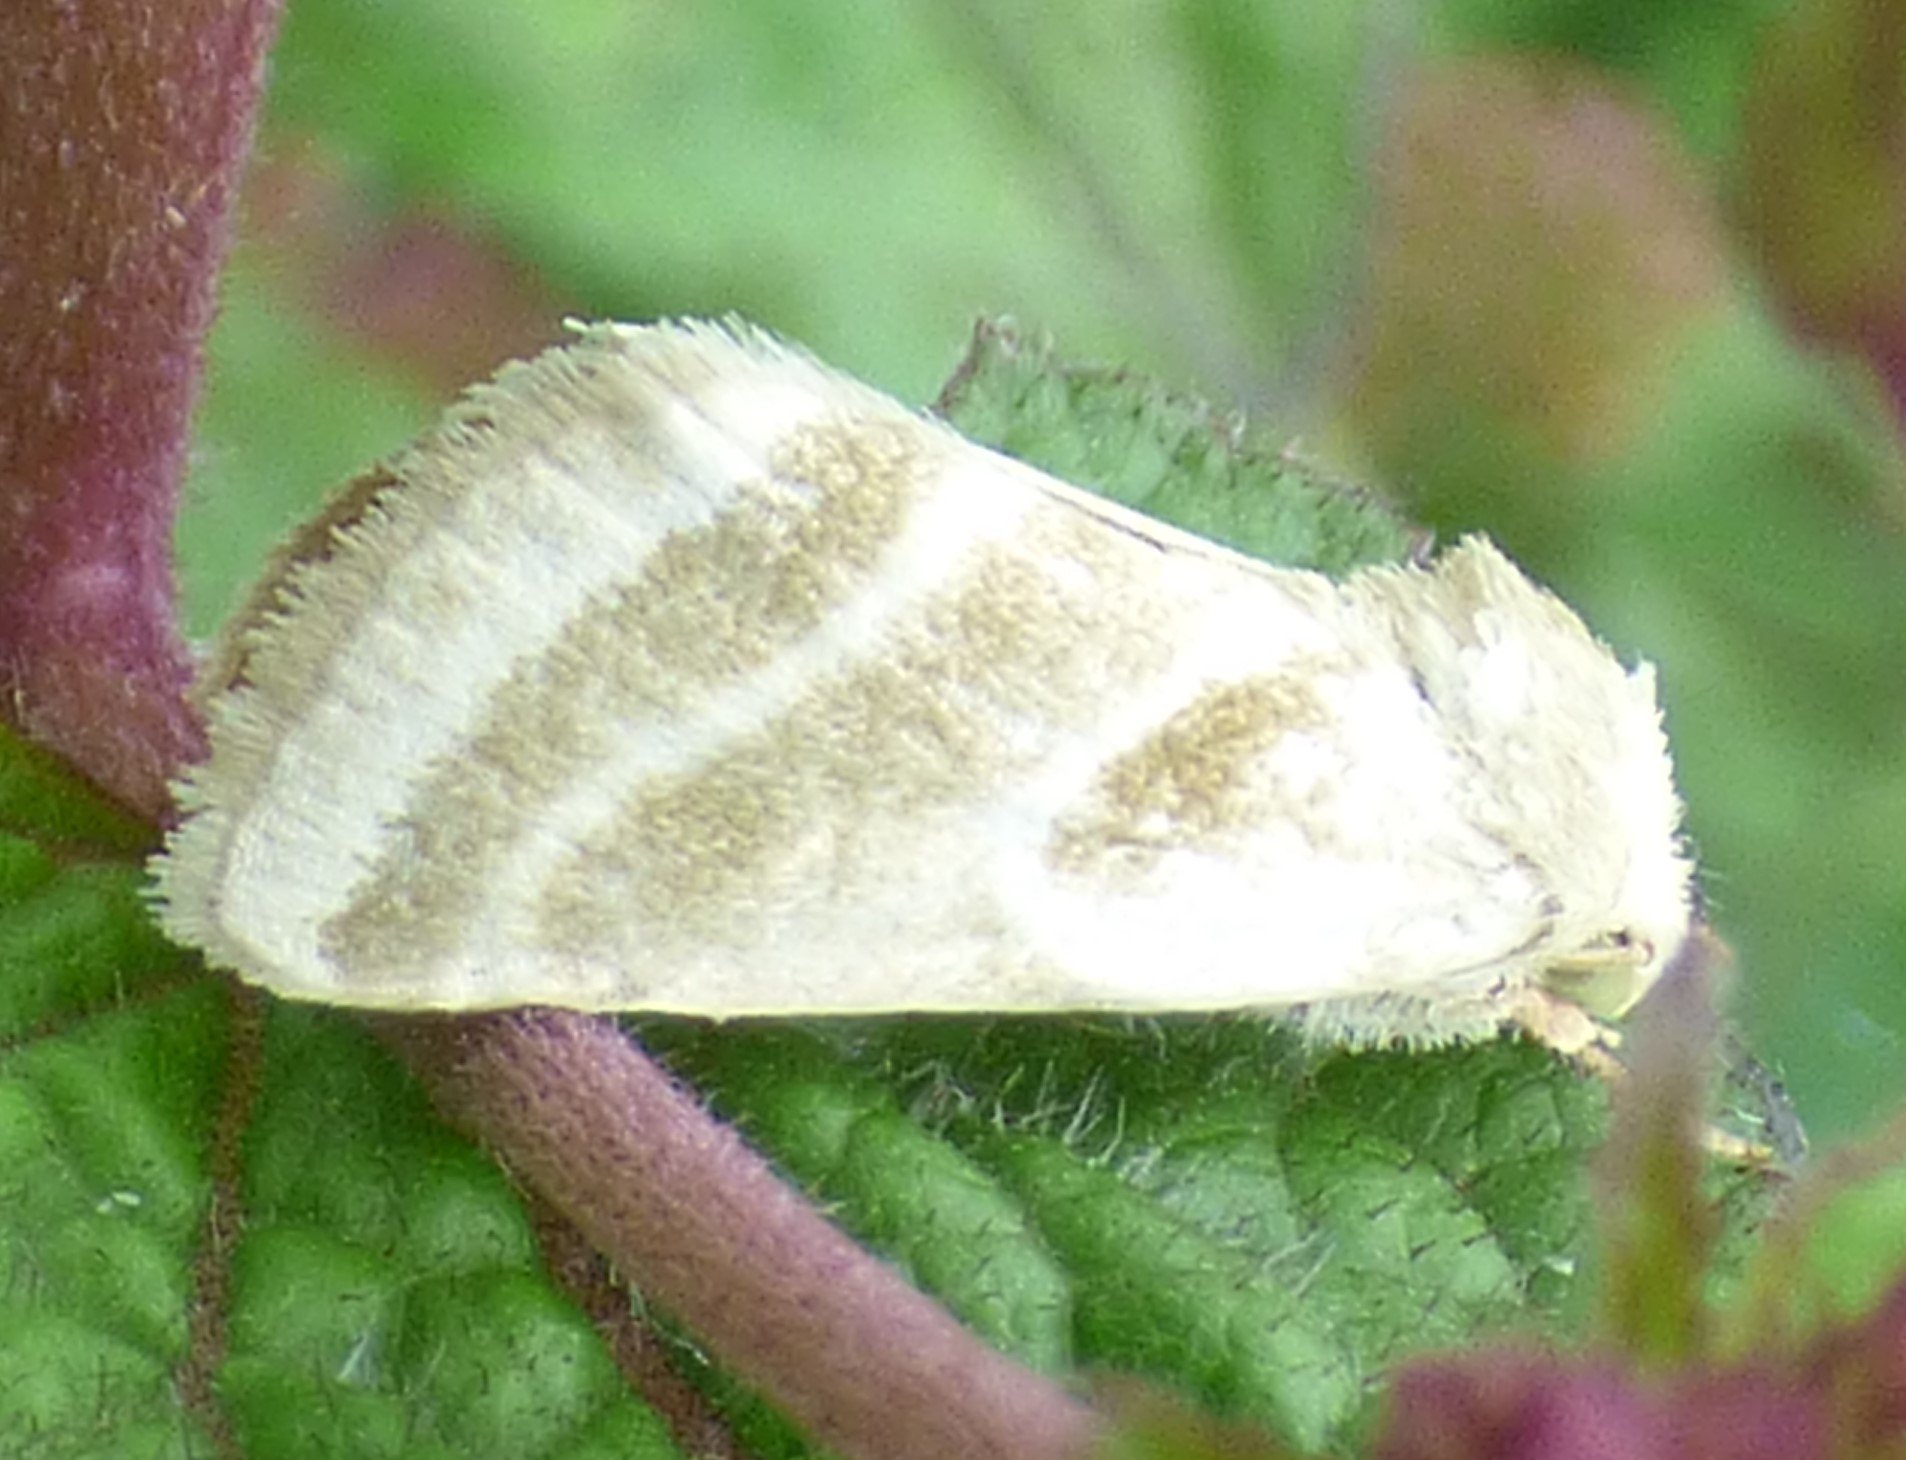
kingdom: Animalia
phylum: Arthropoda
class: Insecta
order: Lepidoptera
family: Noctuidae
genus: Schinia
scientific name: Schinia trifascia
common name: Three-lined flower moth
